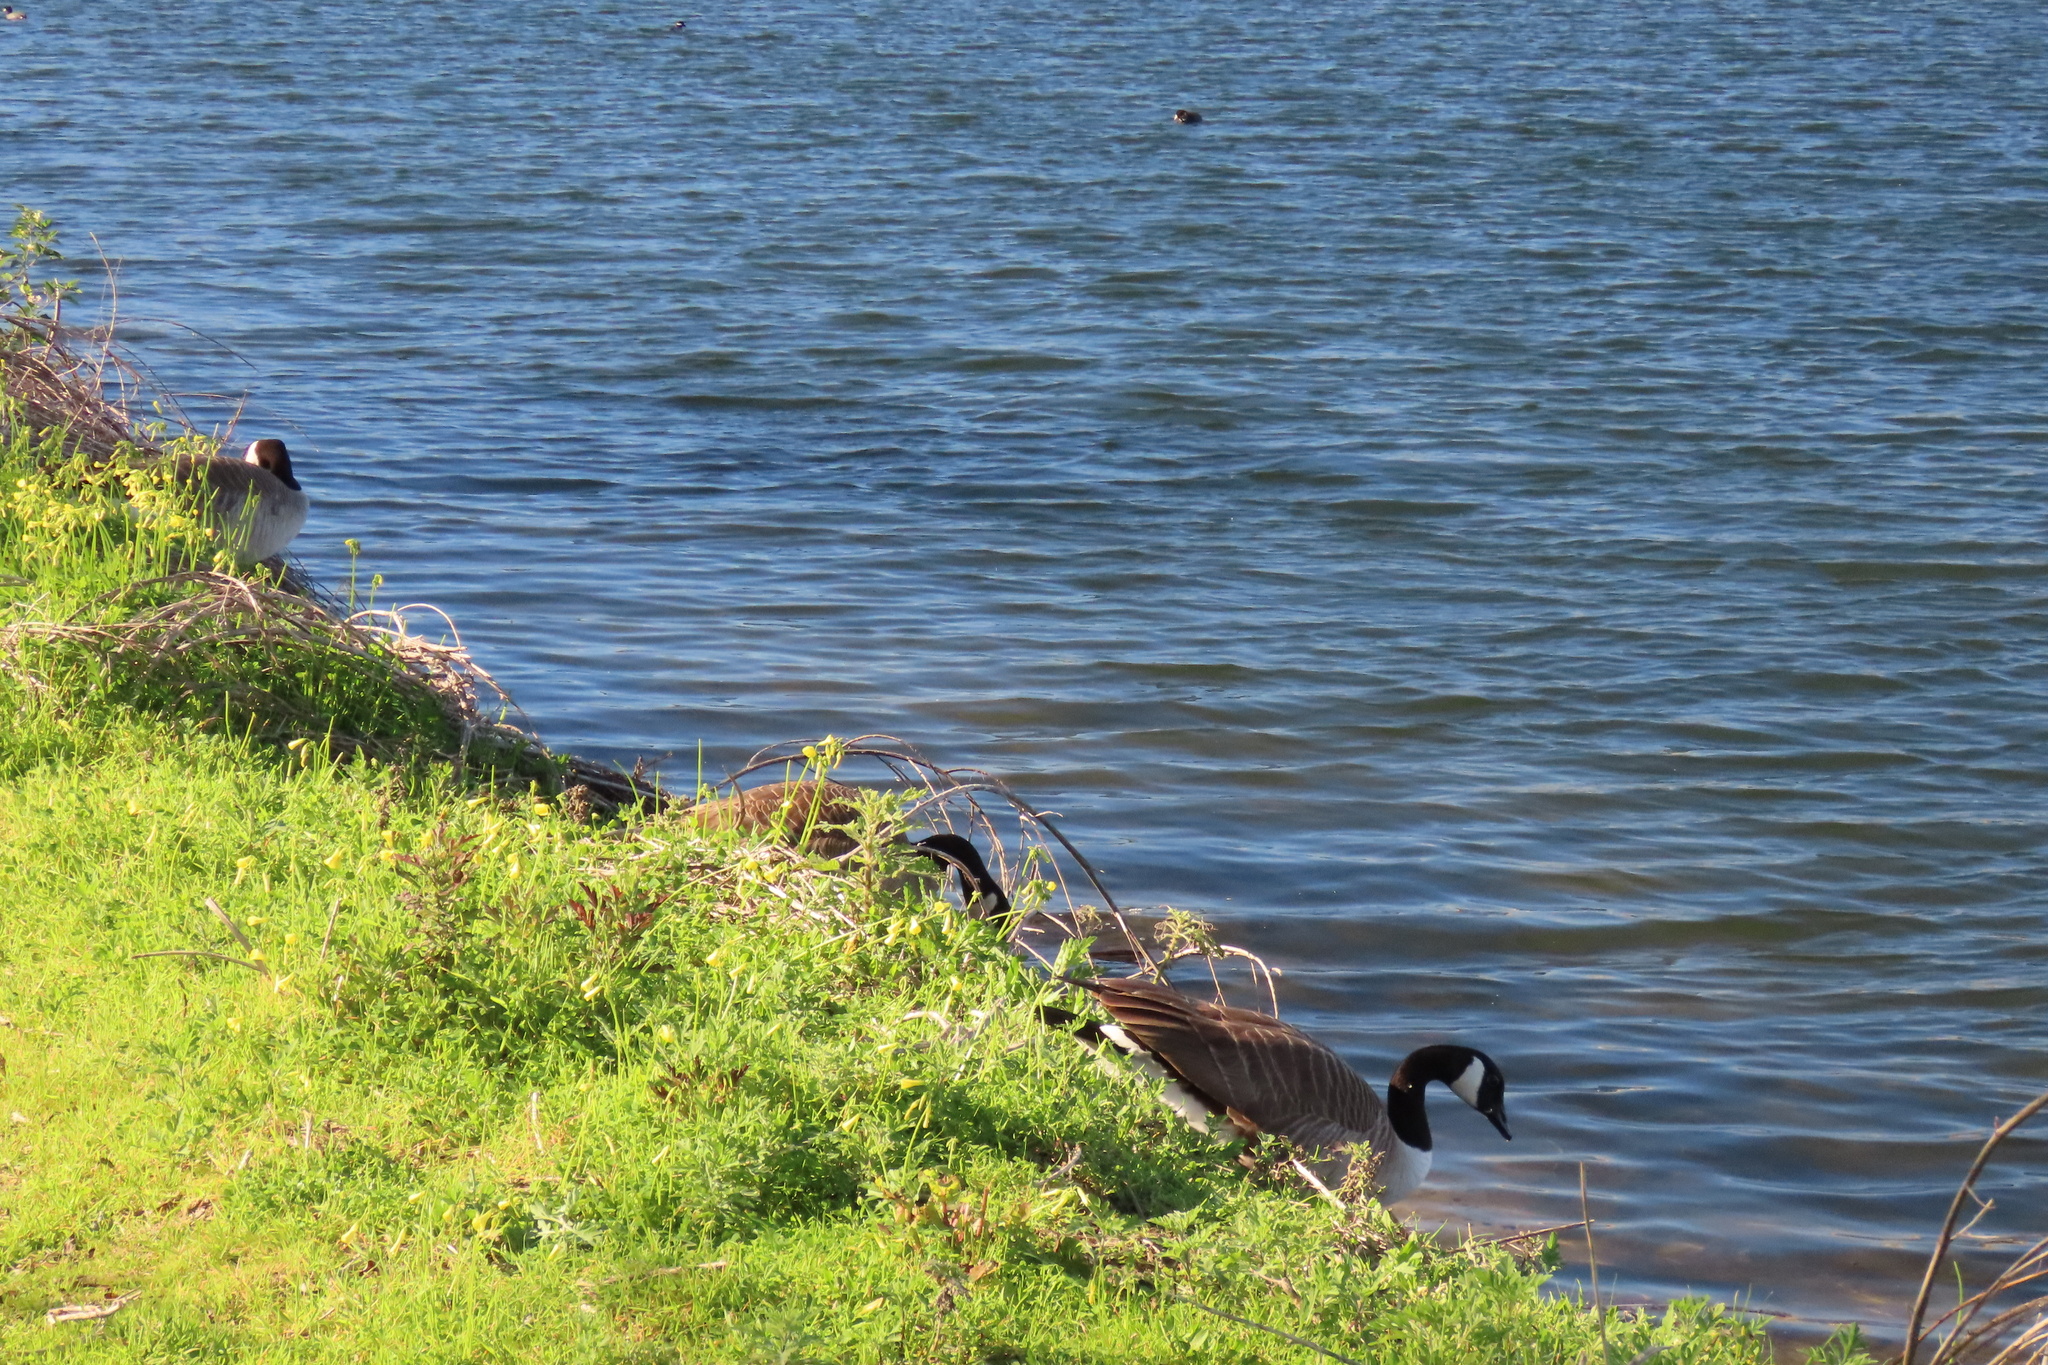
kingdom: Animalia
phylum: Chordata
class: Aves
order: Anseriformes
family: Anatidae
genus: Branta
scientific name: Branta canadensis
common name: Canada goose
